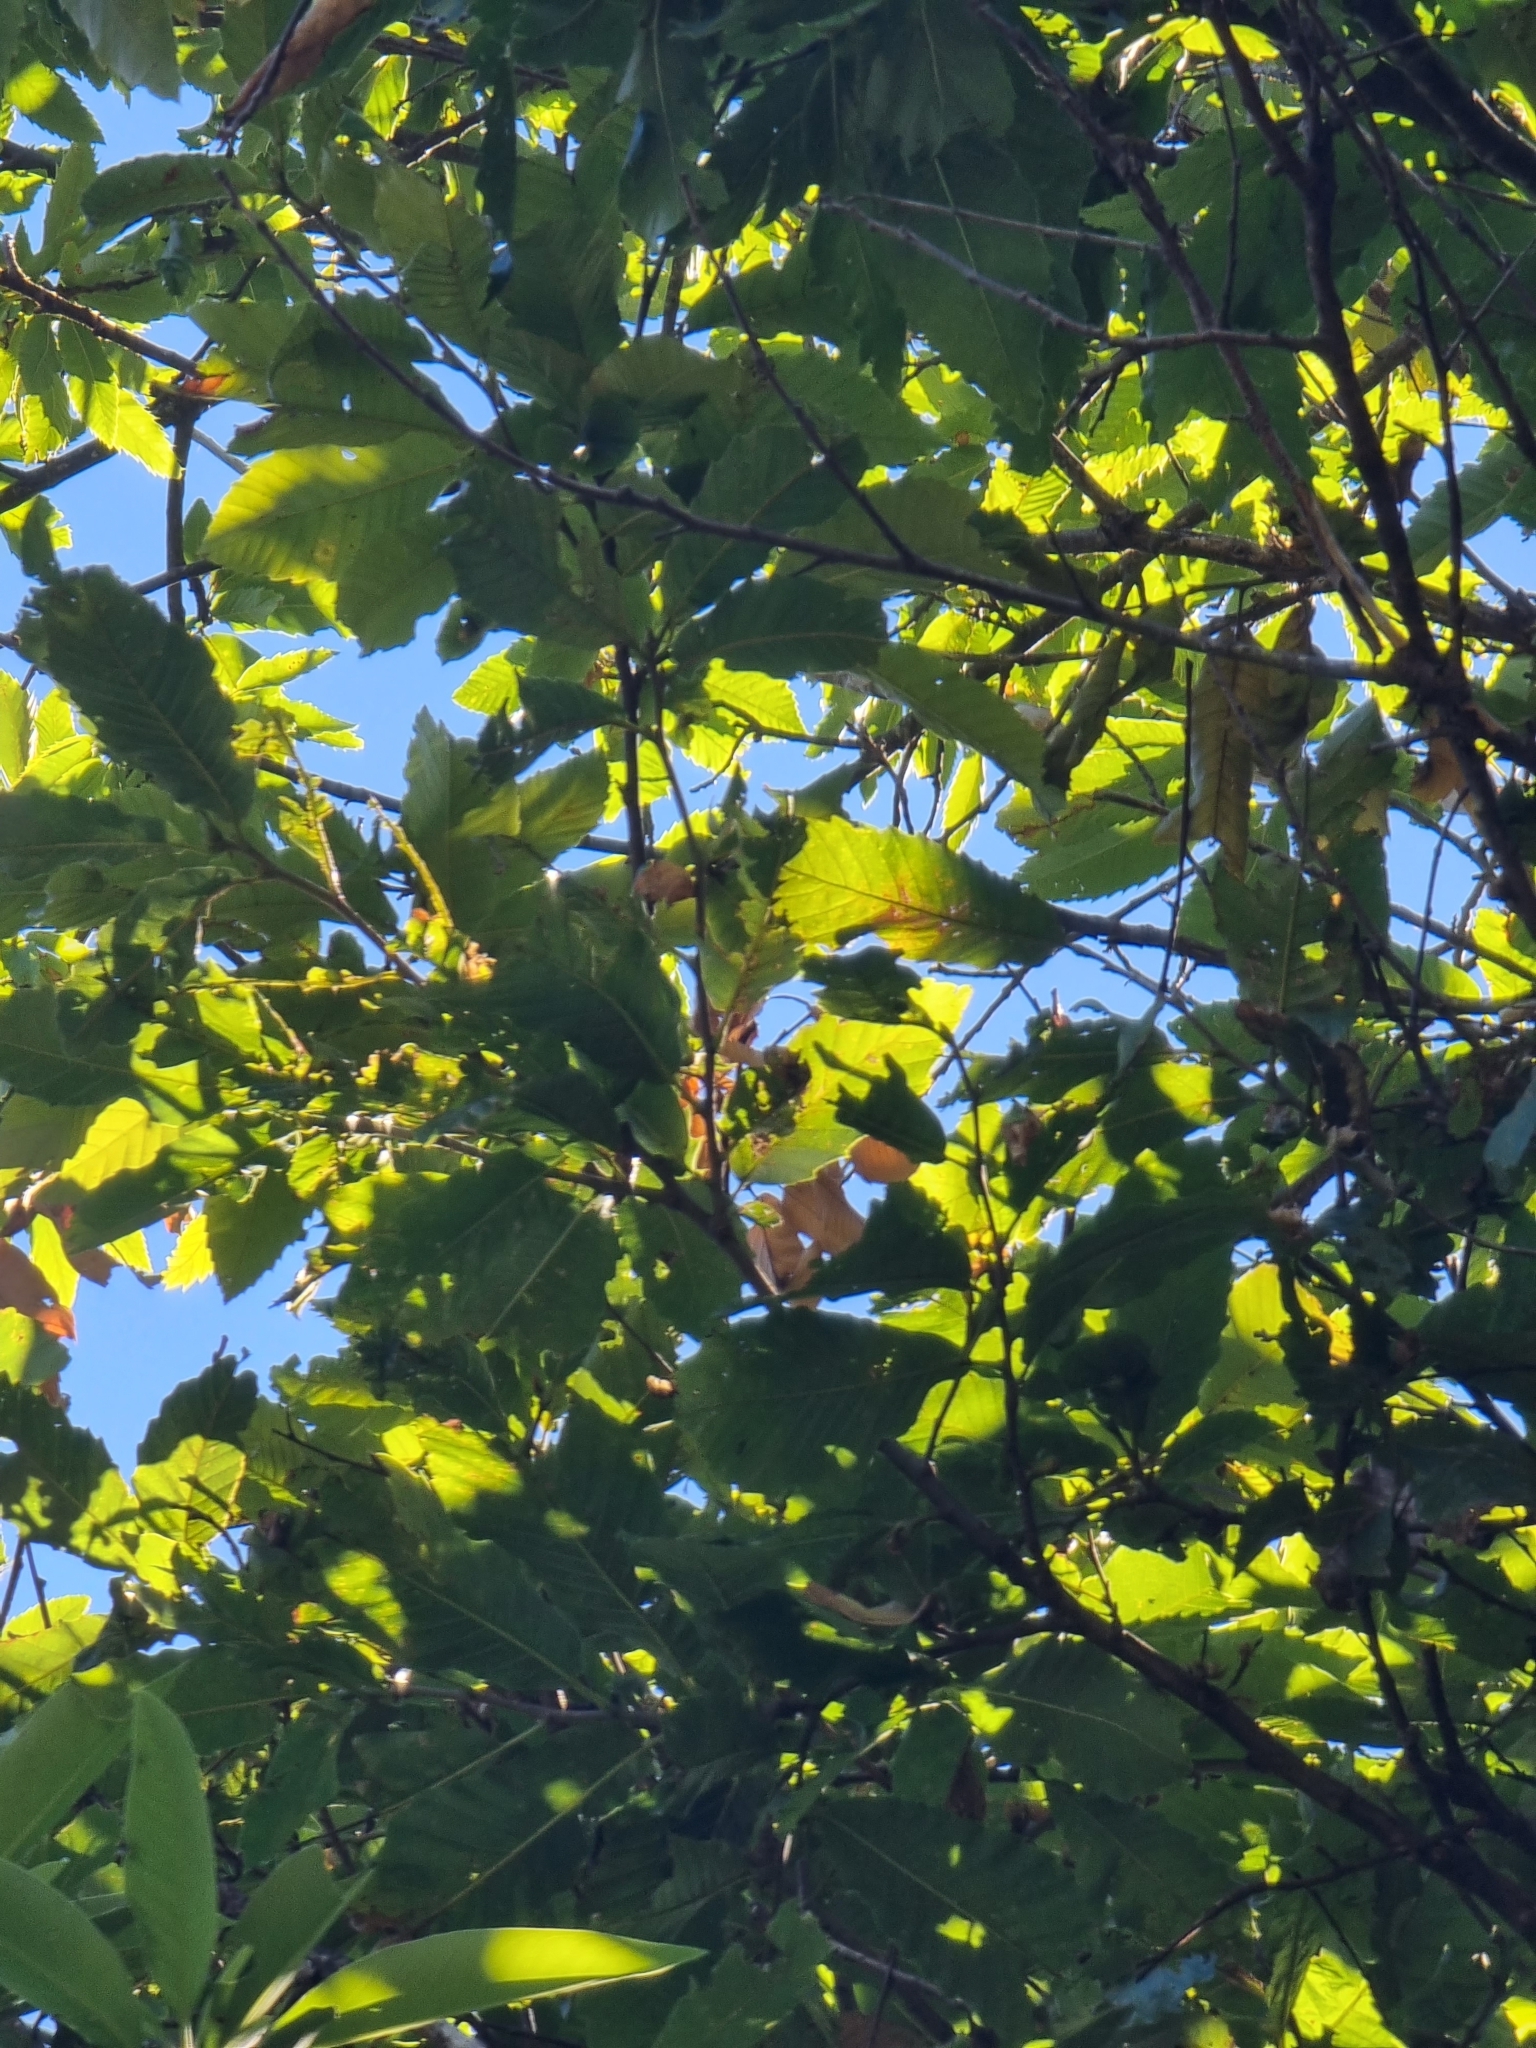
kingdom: Plantae
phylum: Tracheophyta
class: Magnoliopsida
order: Fagales
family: Fagaceae
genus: Castanea
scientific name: Castanea sativa
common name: Sweet chestnut
